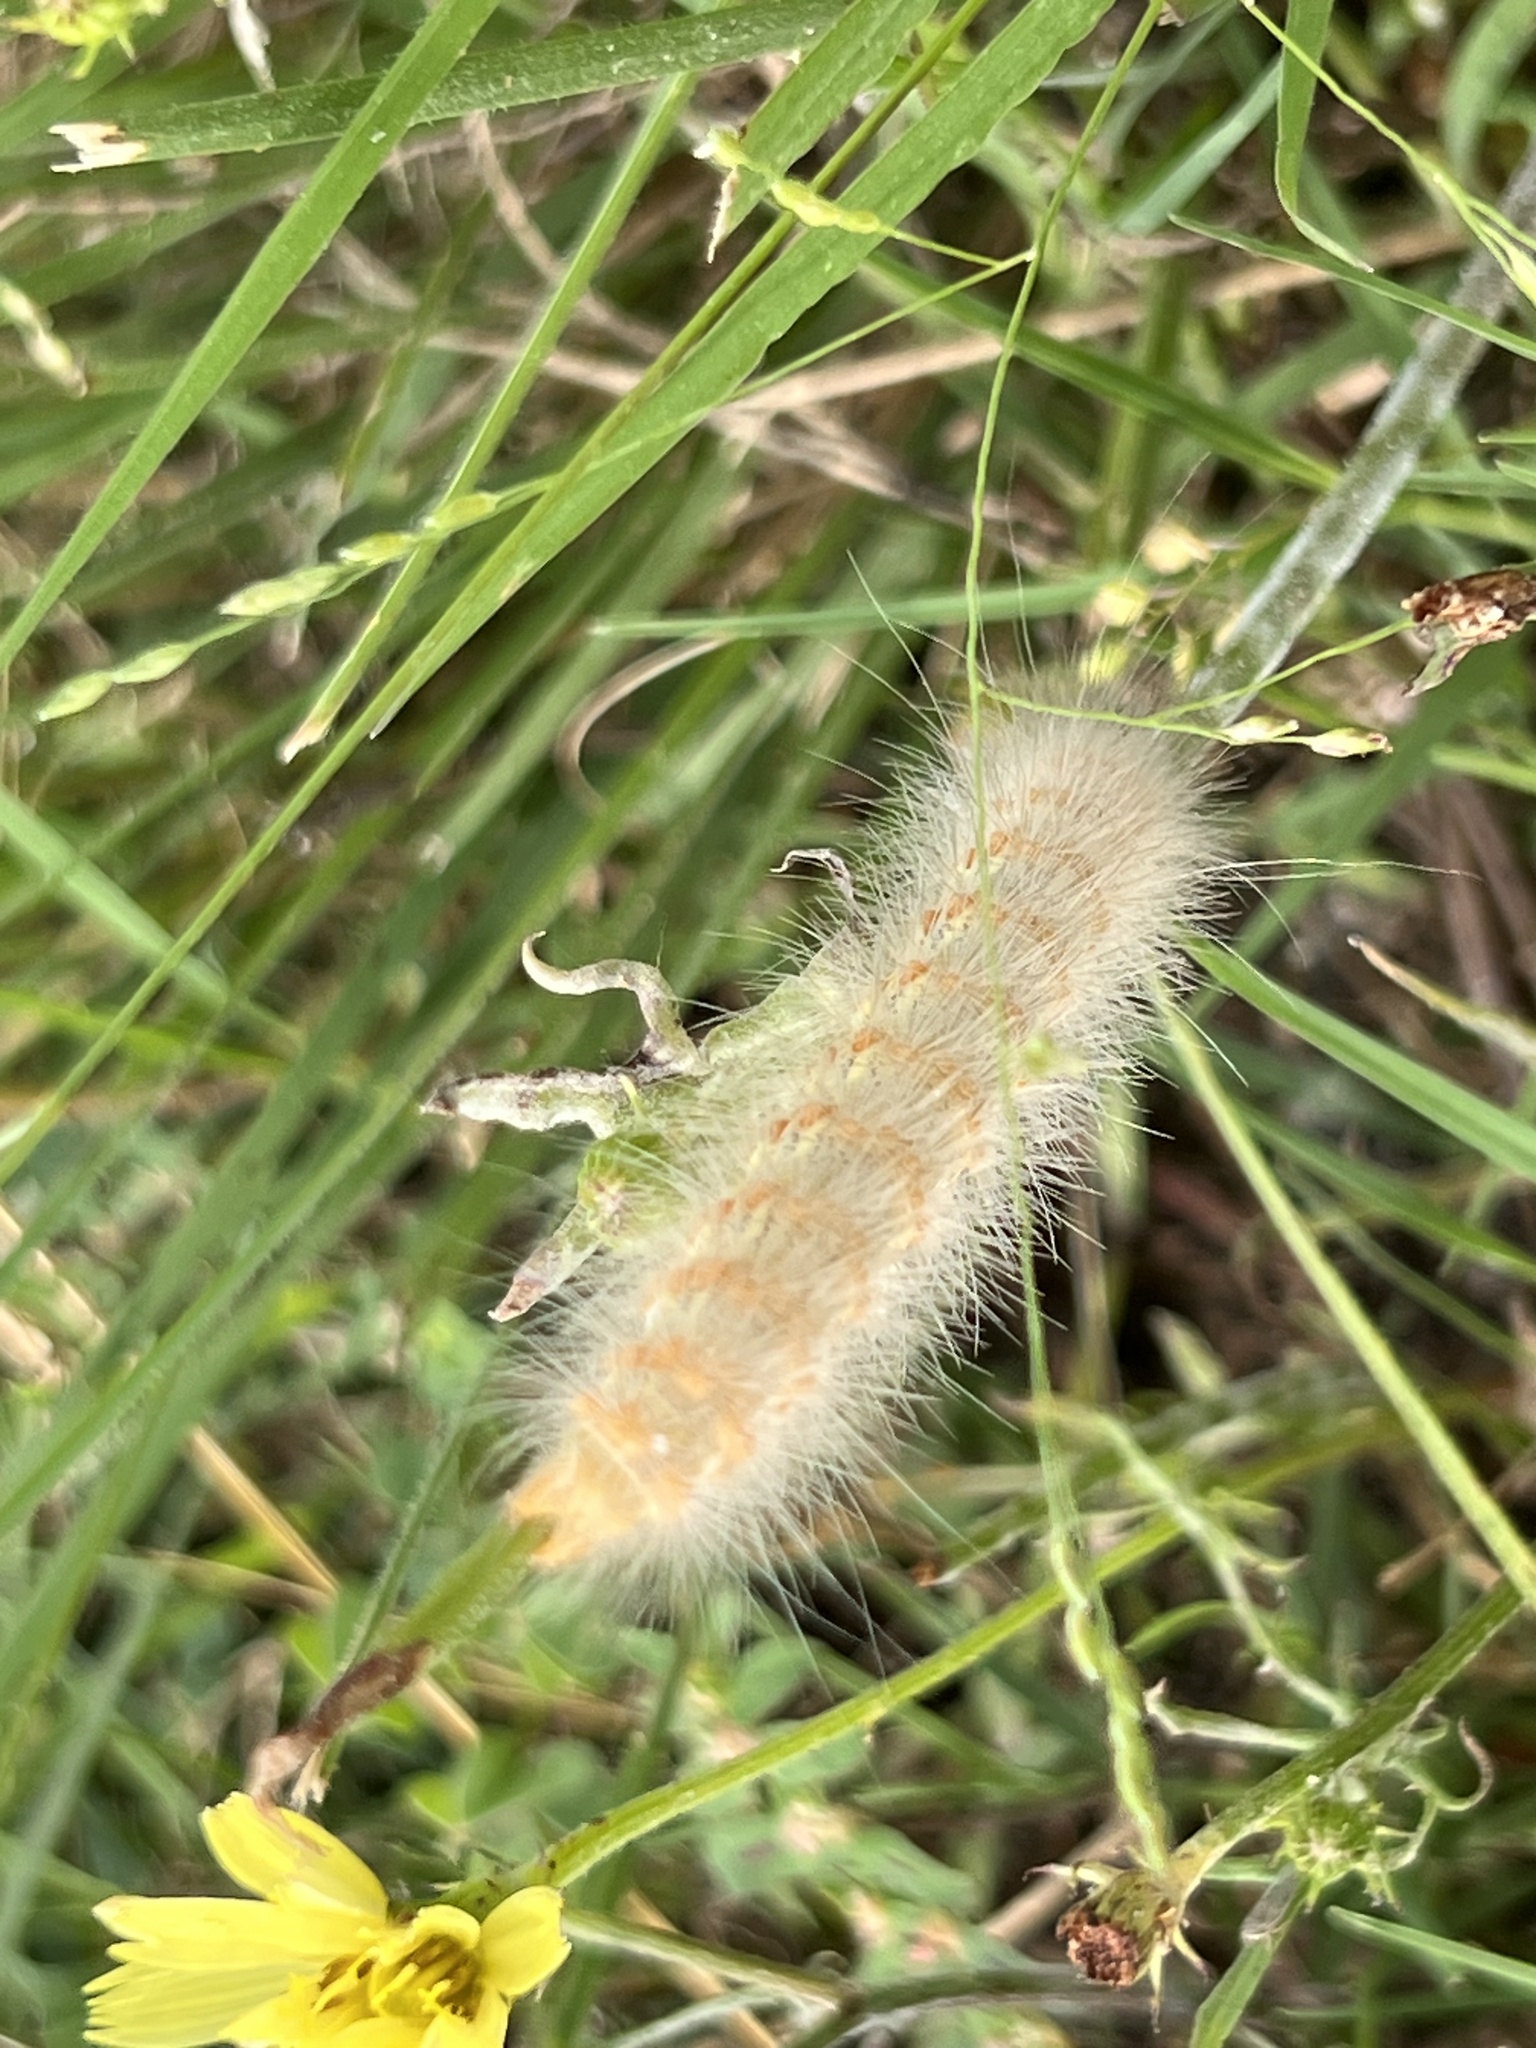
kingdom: Animalia
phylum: Arthropoda
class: Insecta
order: Lepidoptera
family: Erebidae
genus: Estigmene
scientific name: Estigmene acrea
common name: Salt marsh moth
